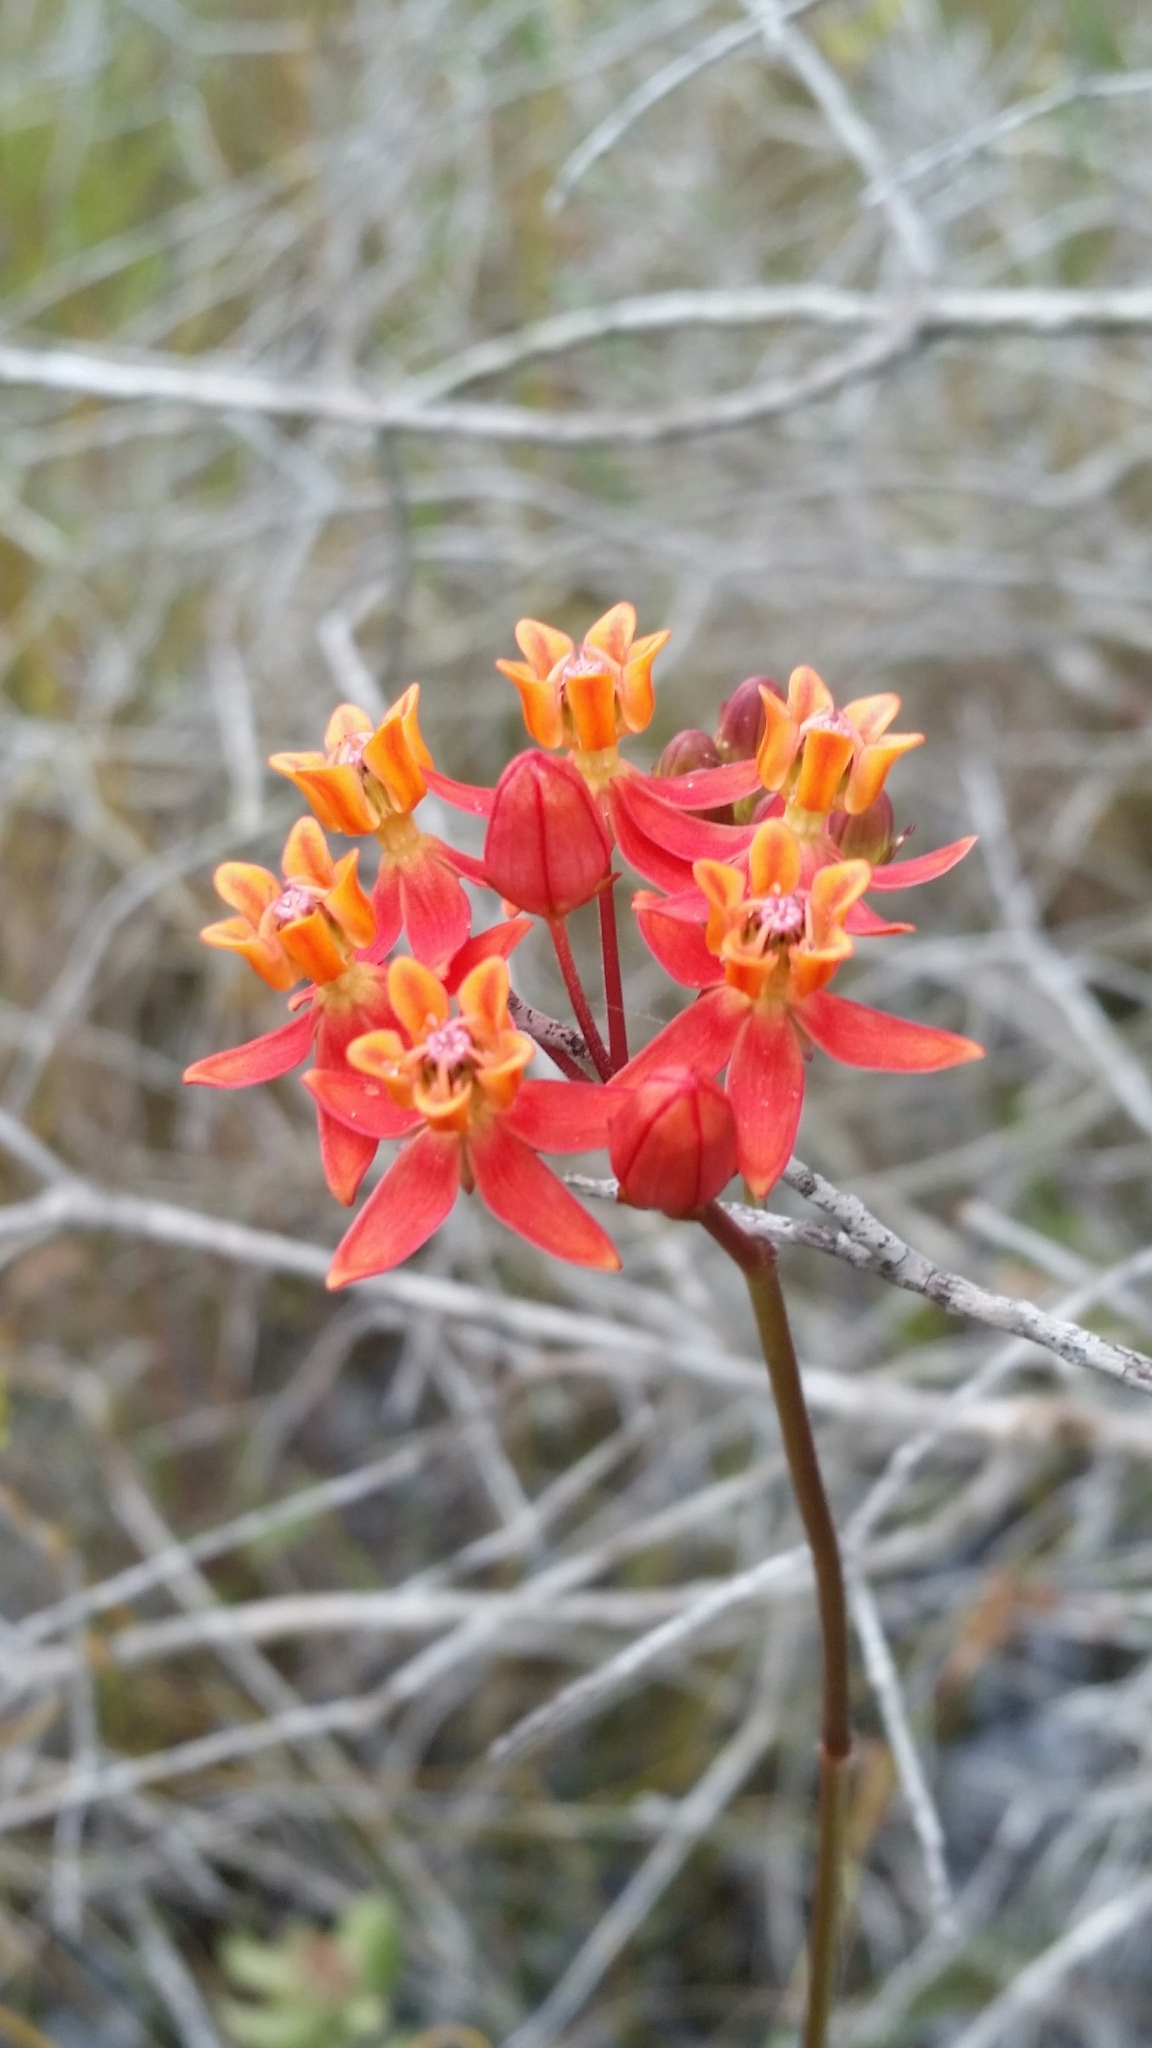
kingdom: Plantae
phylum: Tracheophyta
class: Magnoliopsida
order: Gentianales
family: Apocynaceae
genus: Asclepias
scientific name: Asclepias lanceolata
